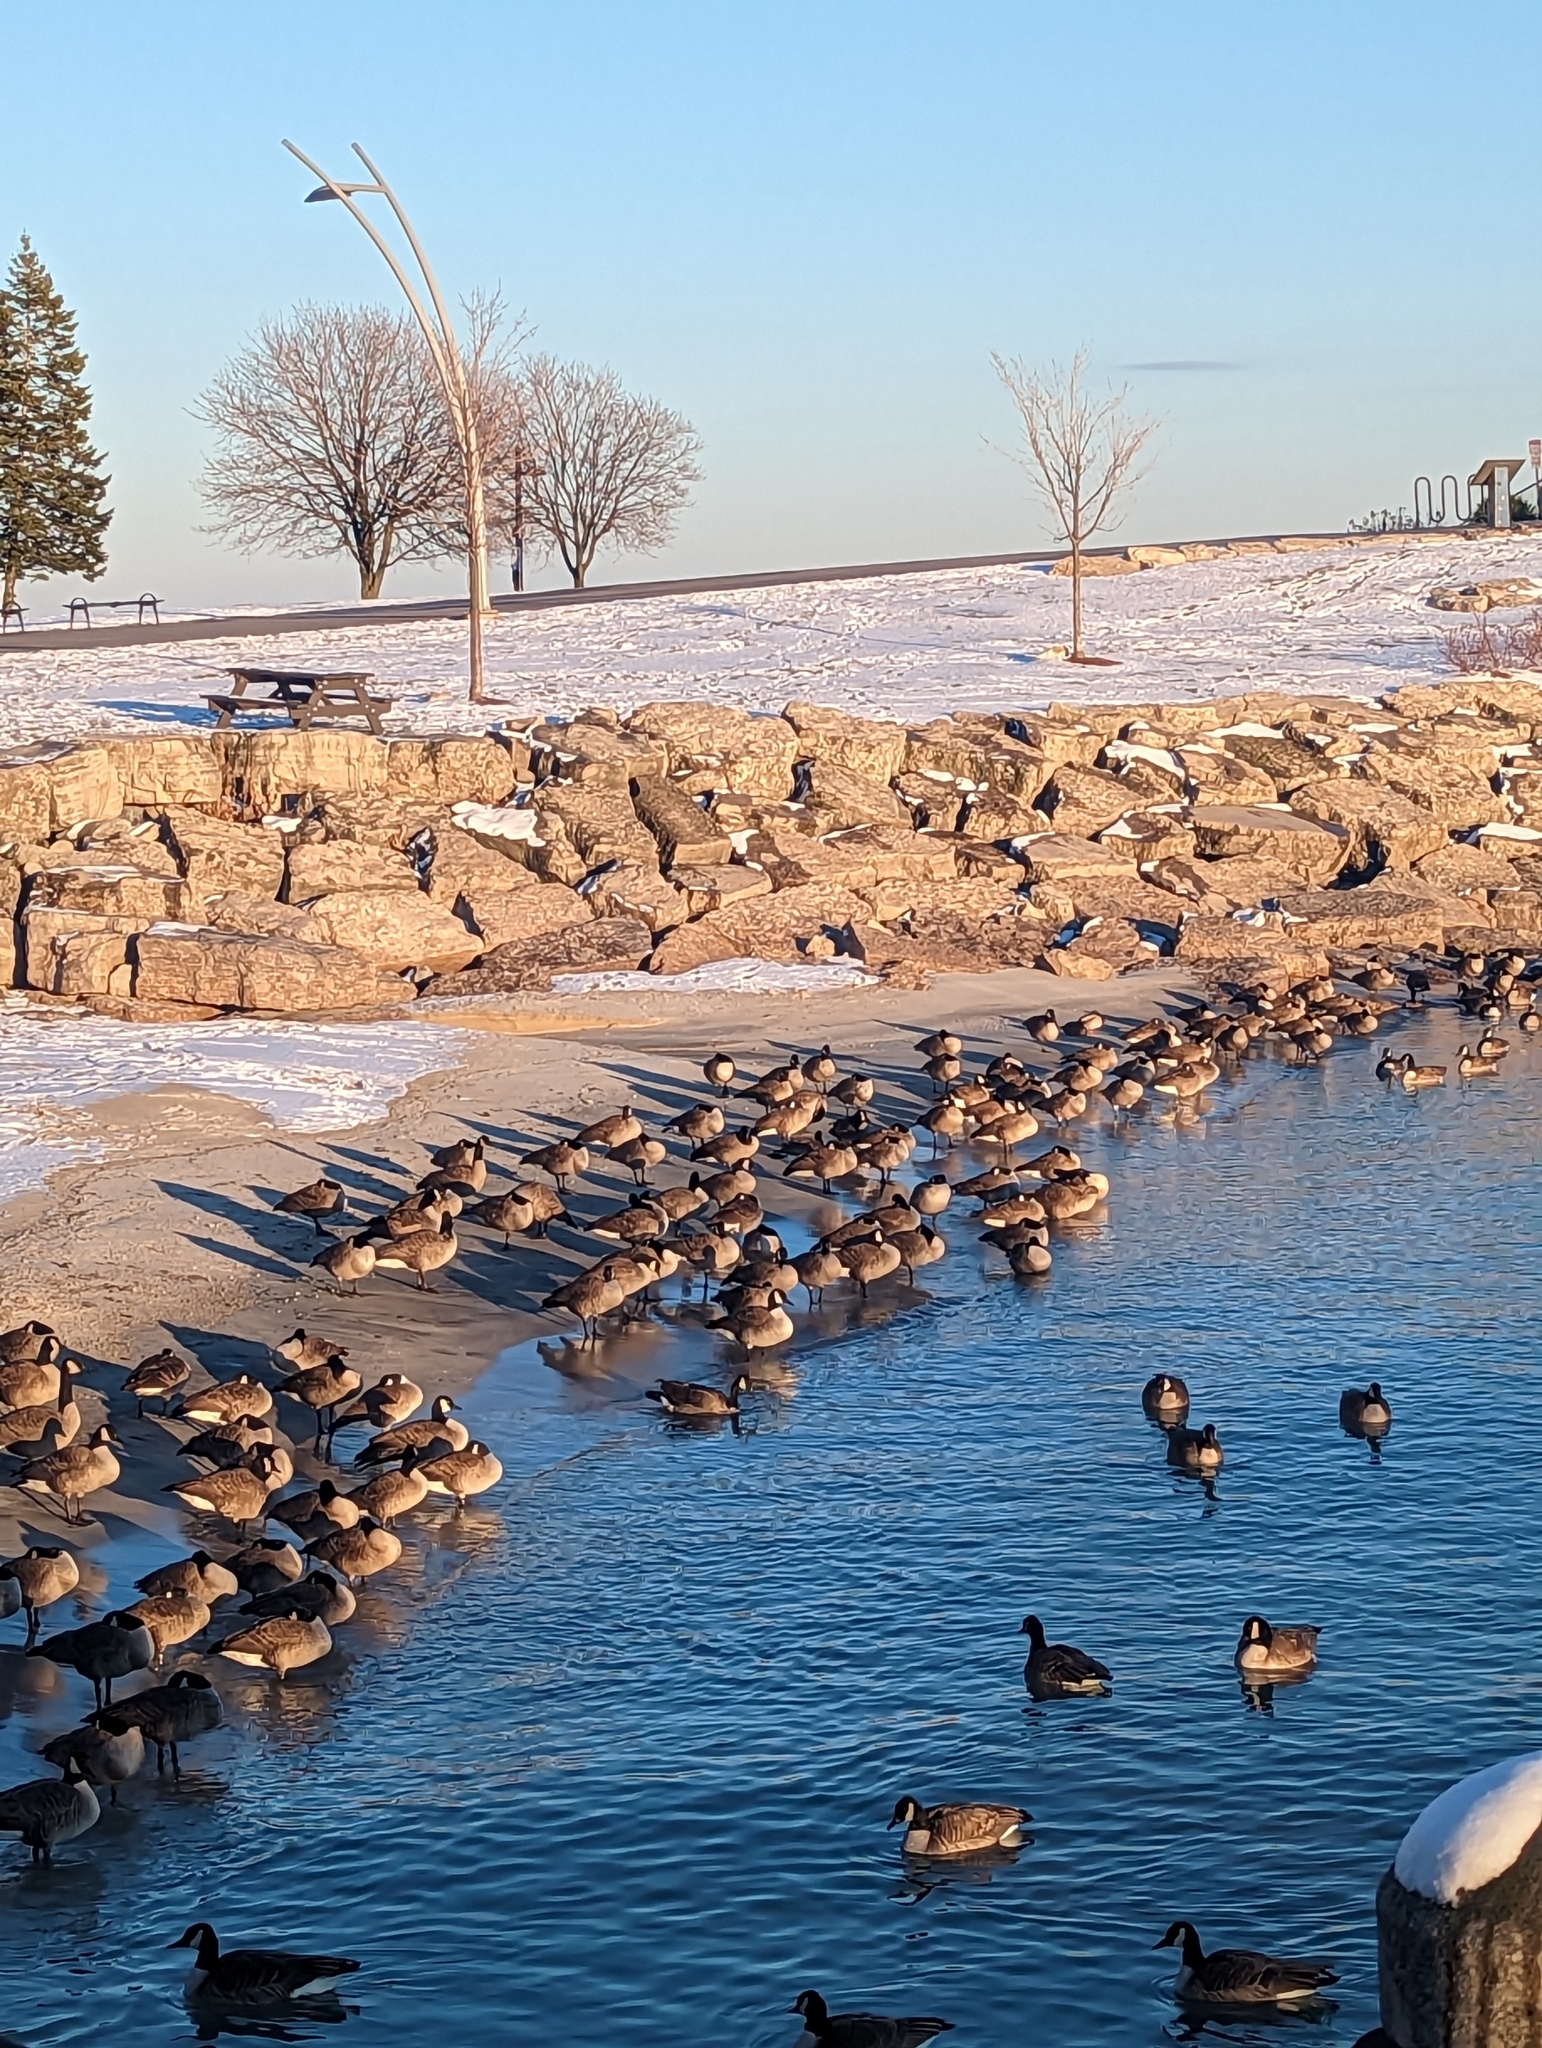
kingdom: Animalia
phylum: Chordata
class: Aves
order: Anseriformes
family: Anatidae
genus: Branta
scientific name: Branta canadensis
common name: Canada goose
